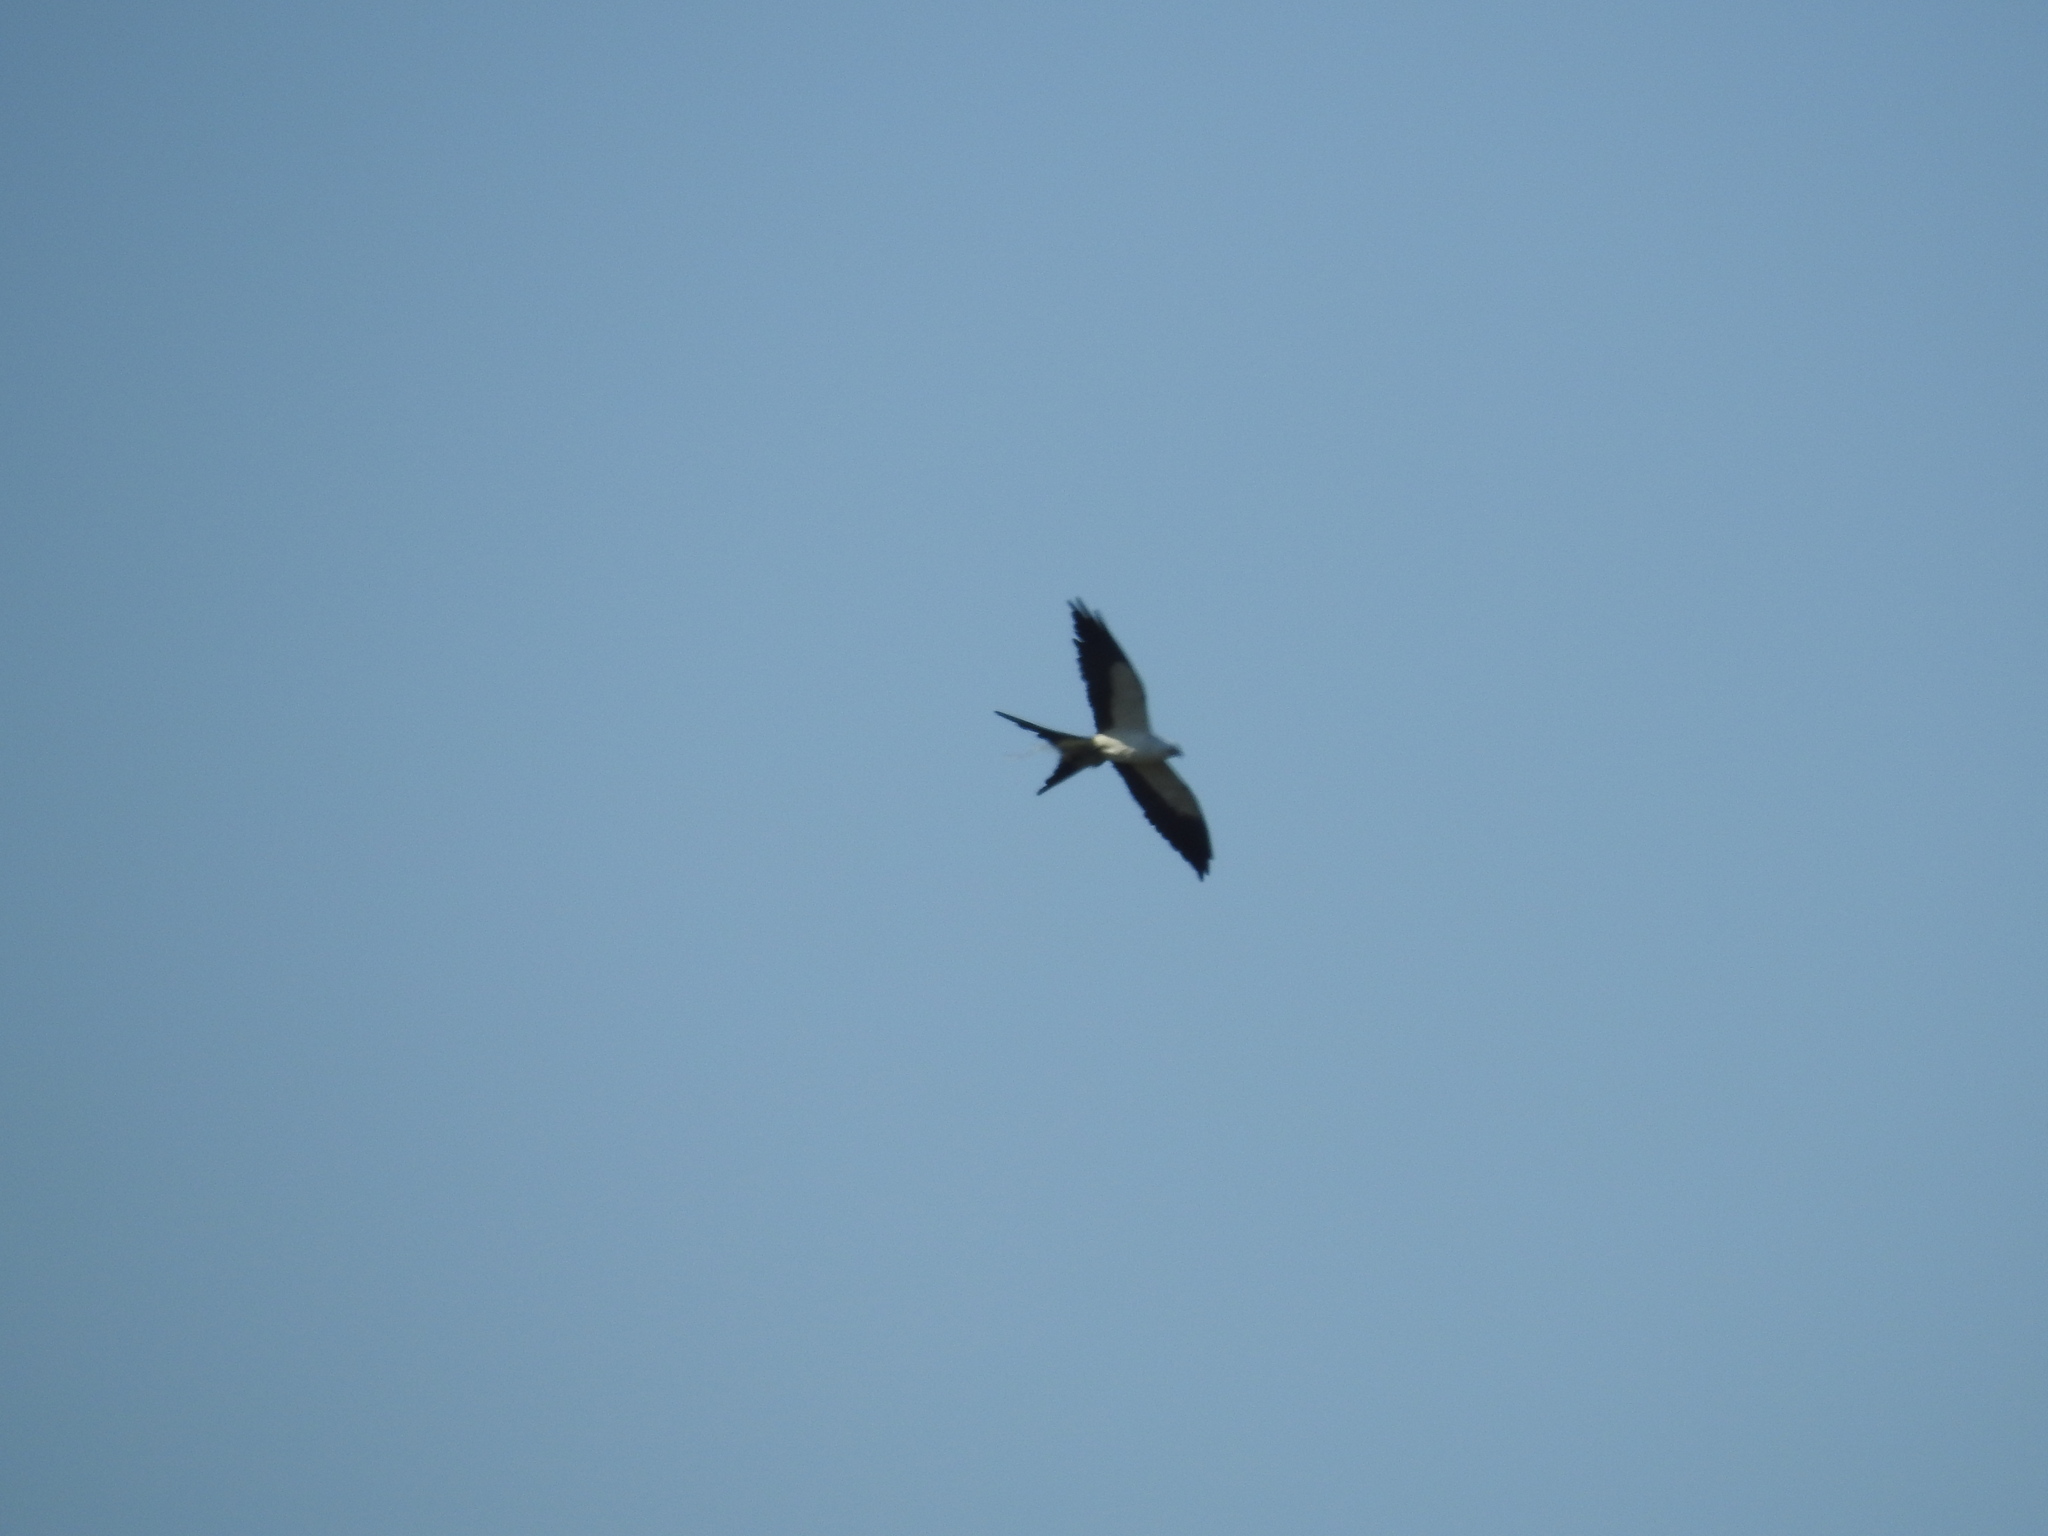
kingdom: Animalia
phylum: Chordata
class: Aves
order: Accipitriformes
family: Accipitridae
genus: Elanoides
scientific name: Elanoides forficatus
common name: Swallow-tailed kite
